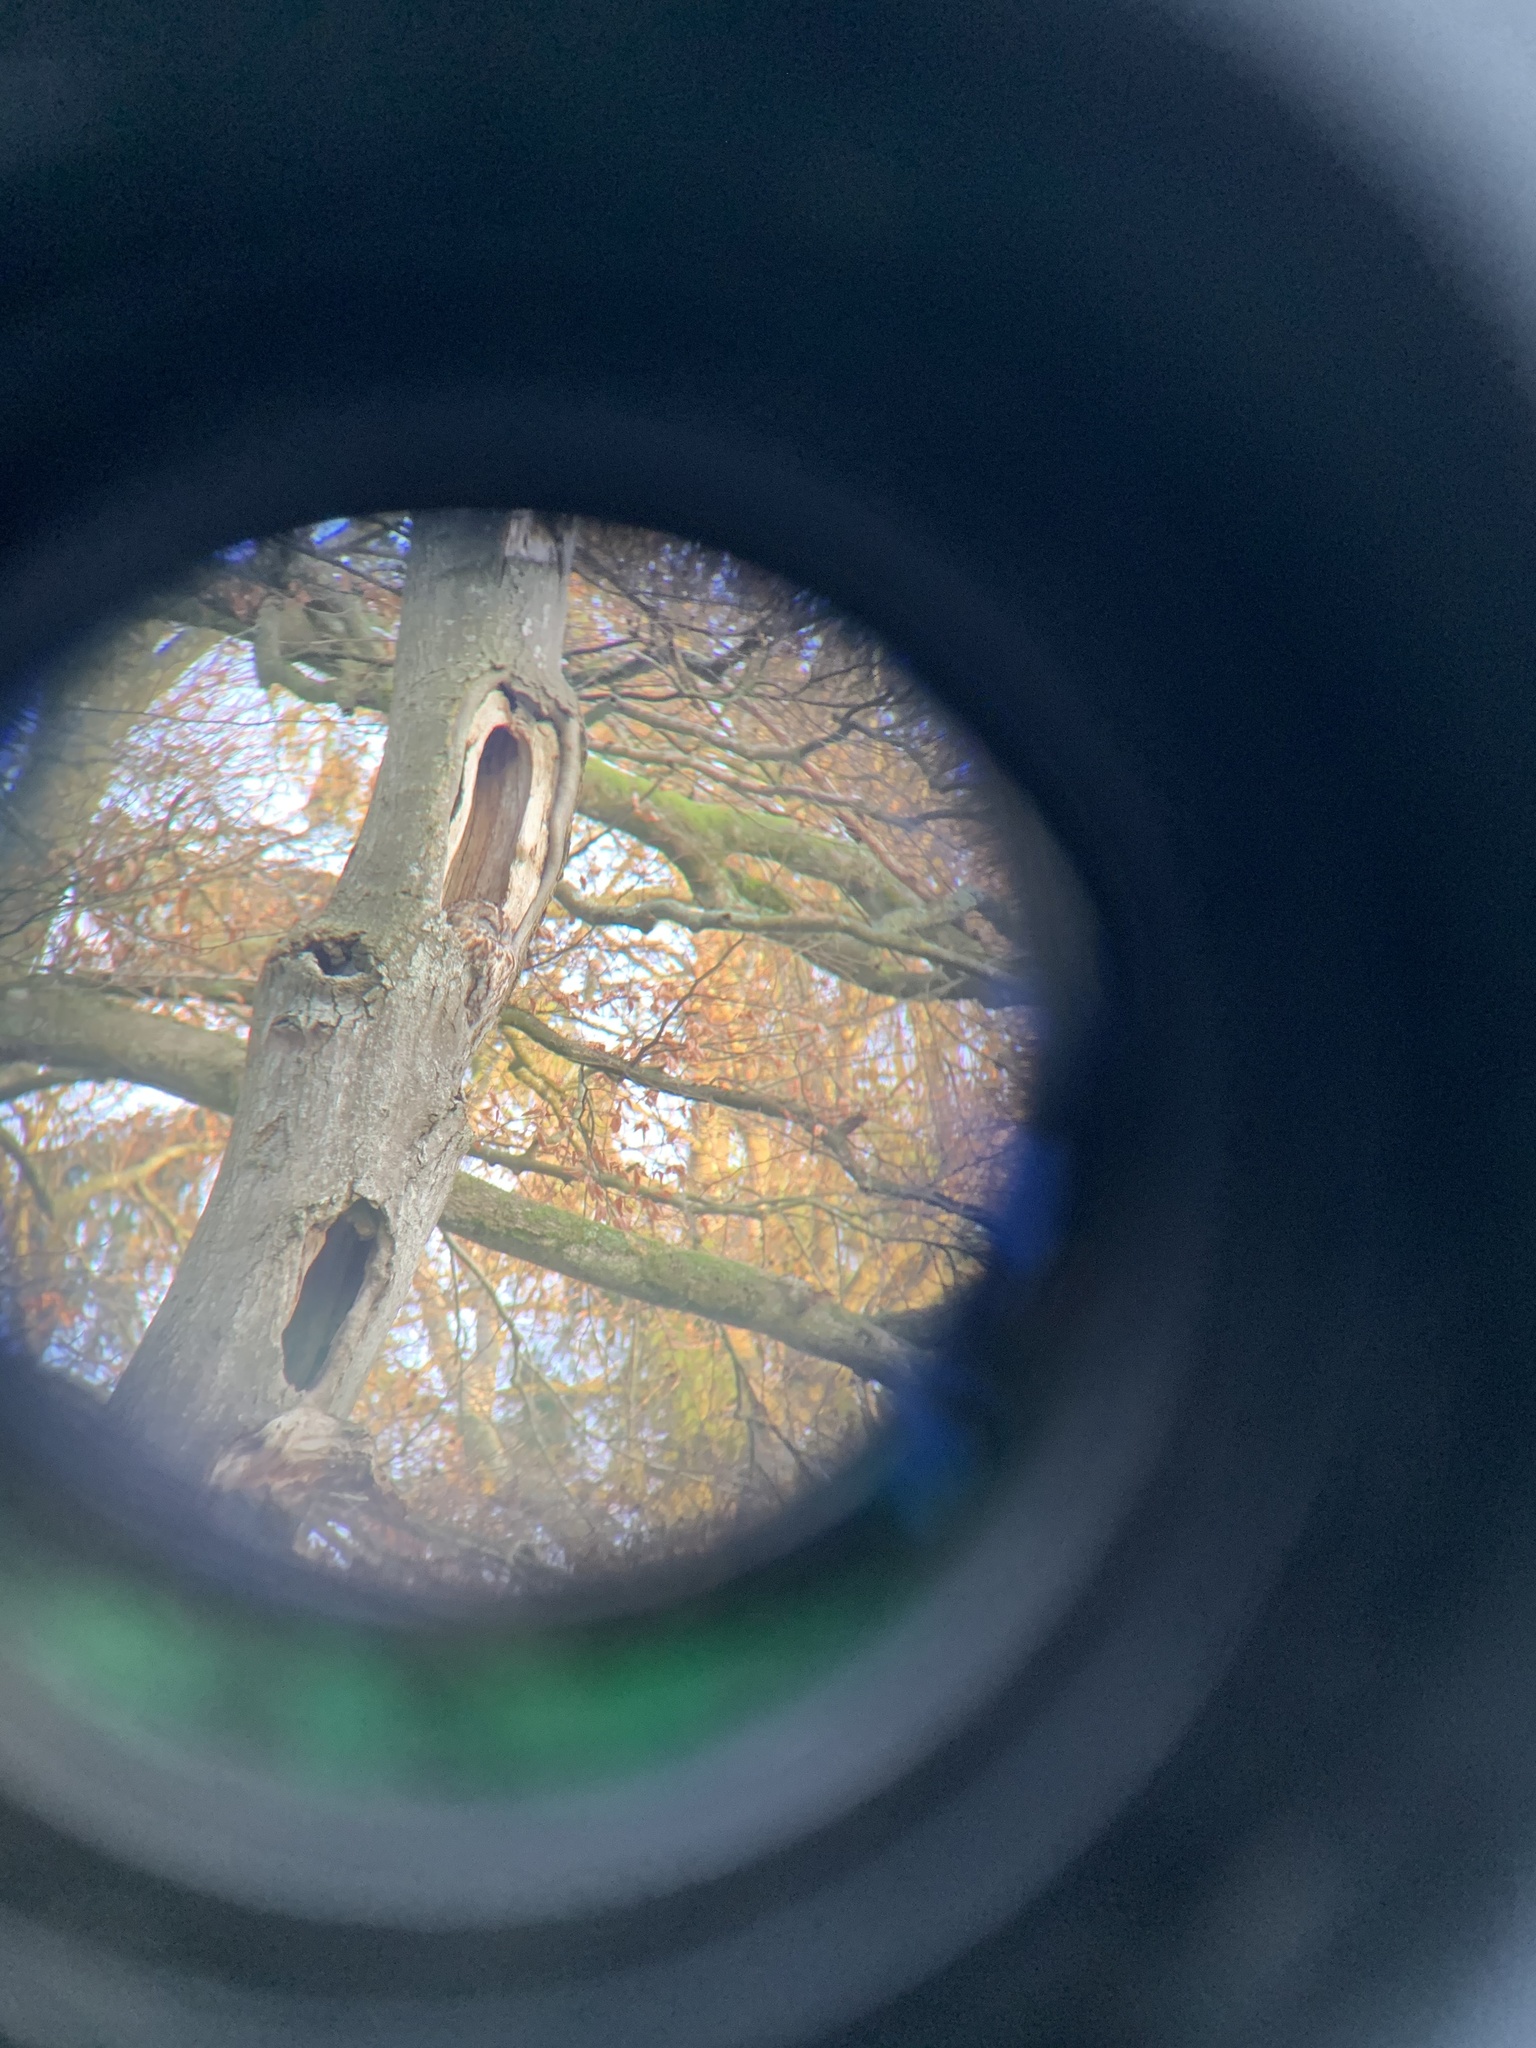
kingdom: Animalia
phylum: Chordata
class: Aves
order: Strigiformes
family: Strigidae
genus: Strix
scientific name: Strix aluco
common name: Tawny owl
